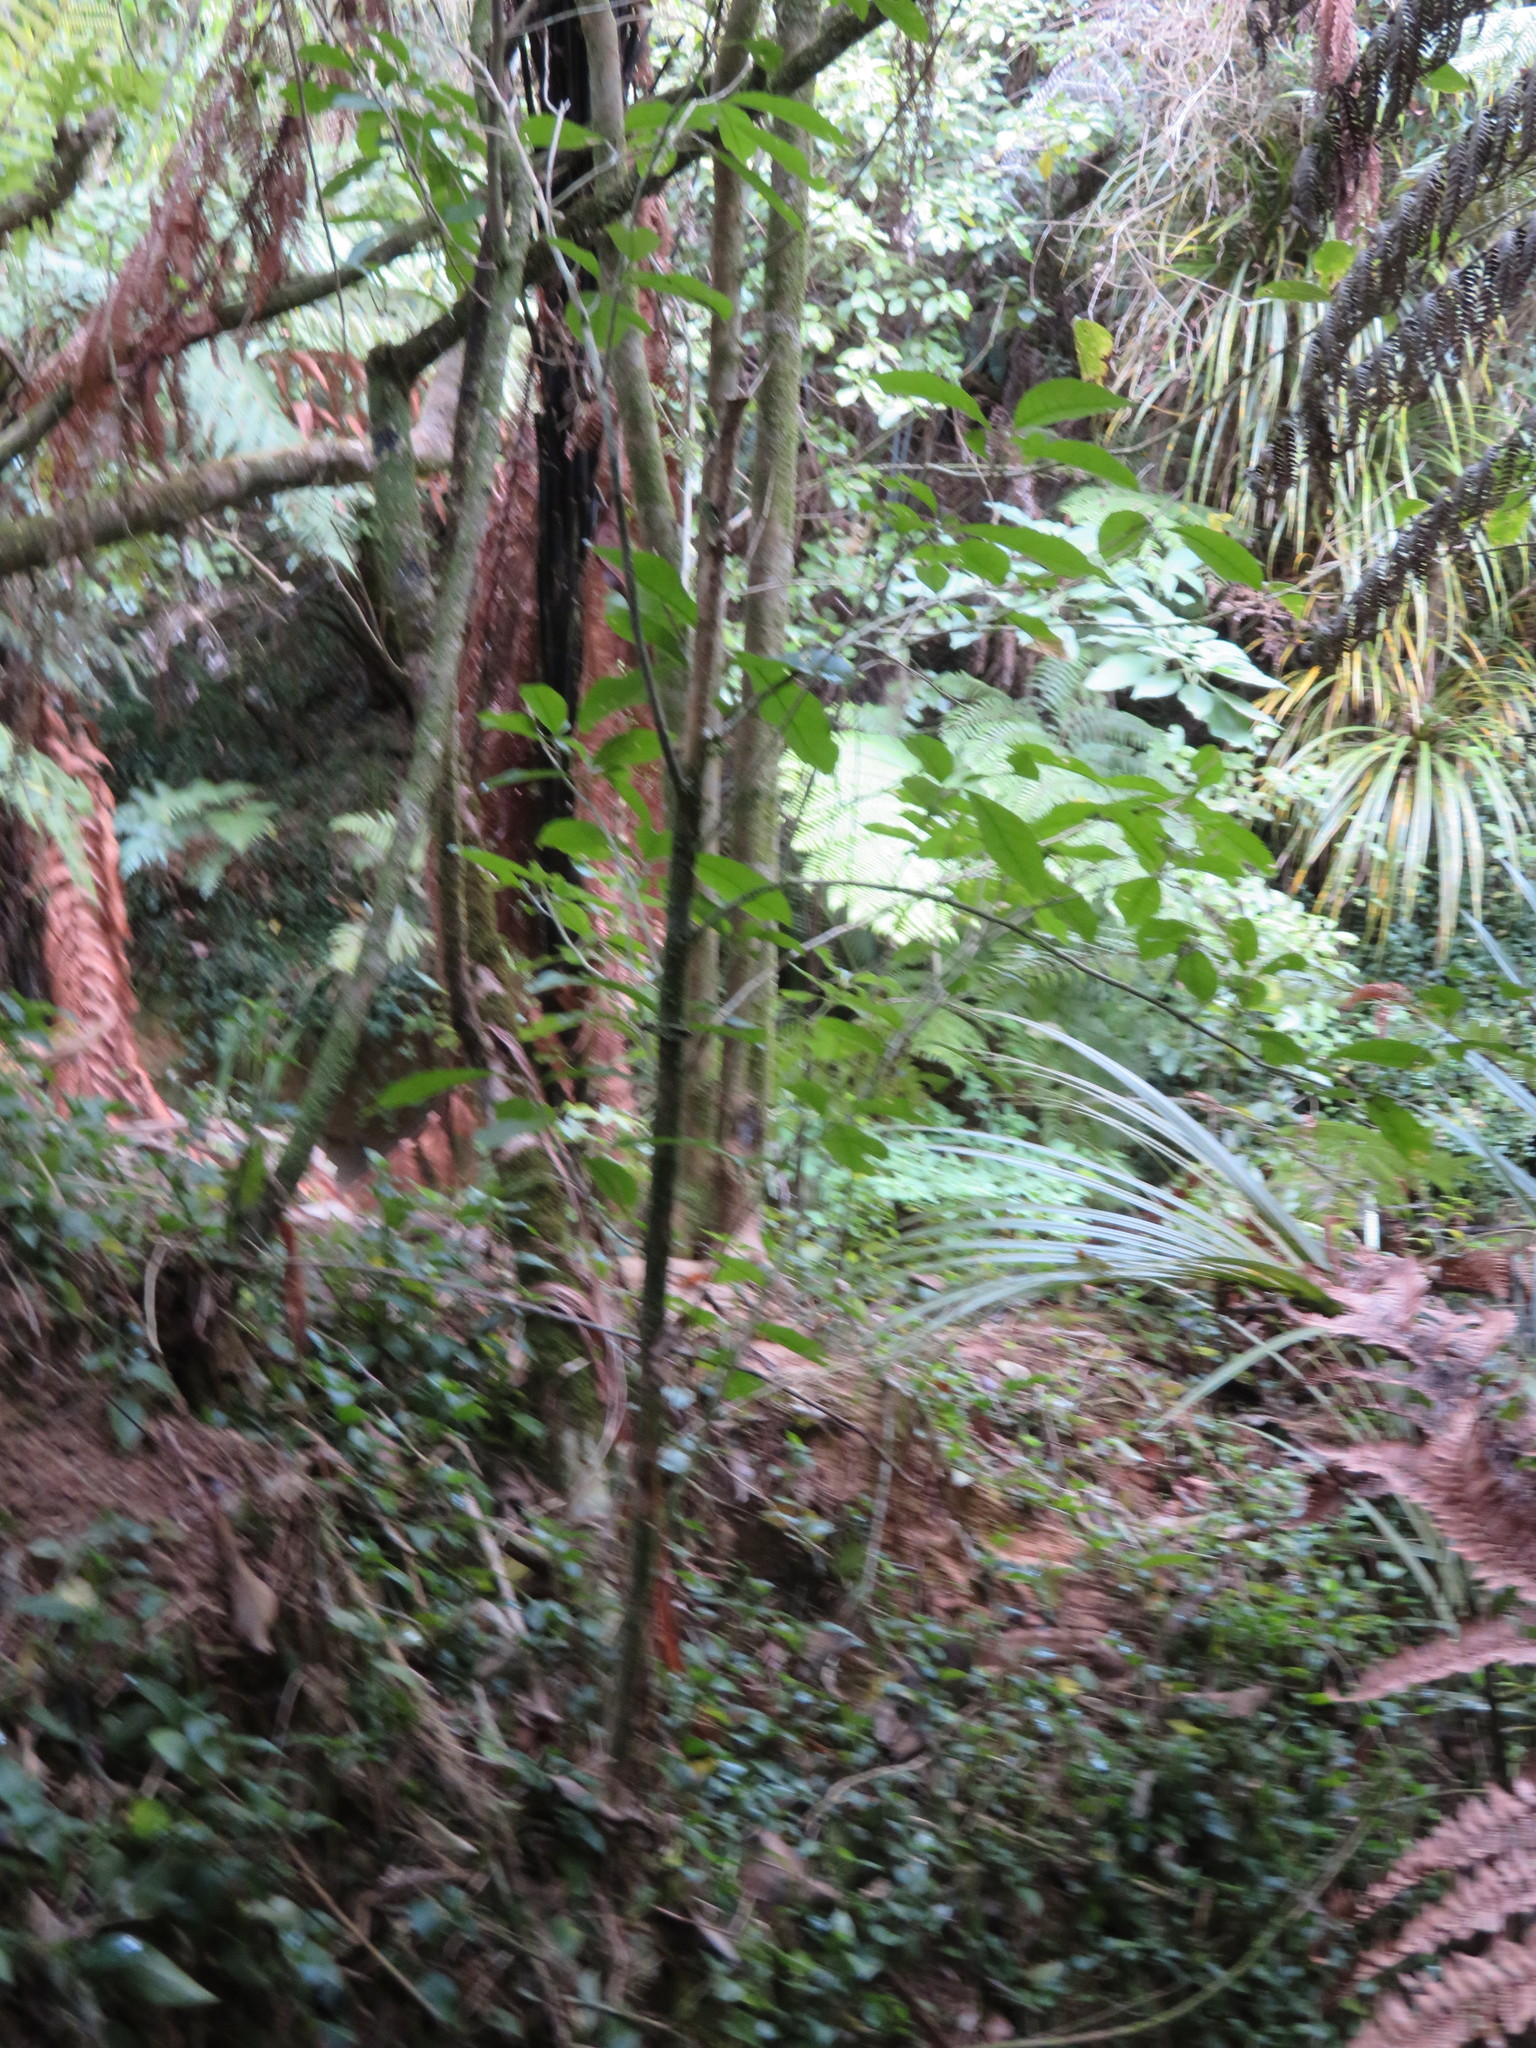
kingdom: Plantae
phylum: Tracheophyta
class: Liliopsida
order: Commelinales
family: Commelinaceae
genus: Tradescantia
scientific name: Tradescantia fluminensis
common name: Wandering-jew
